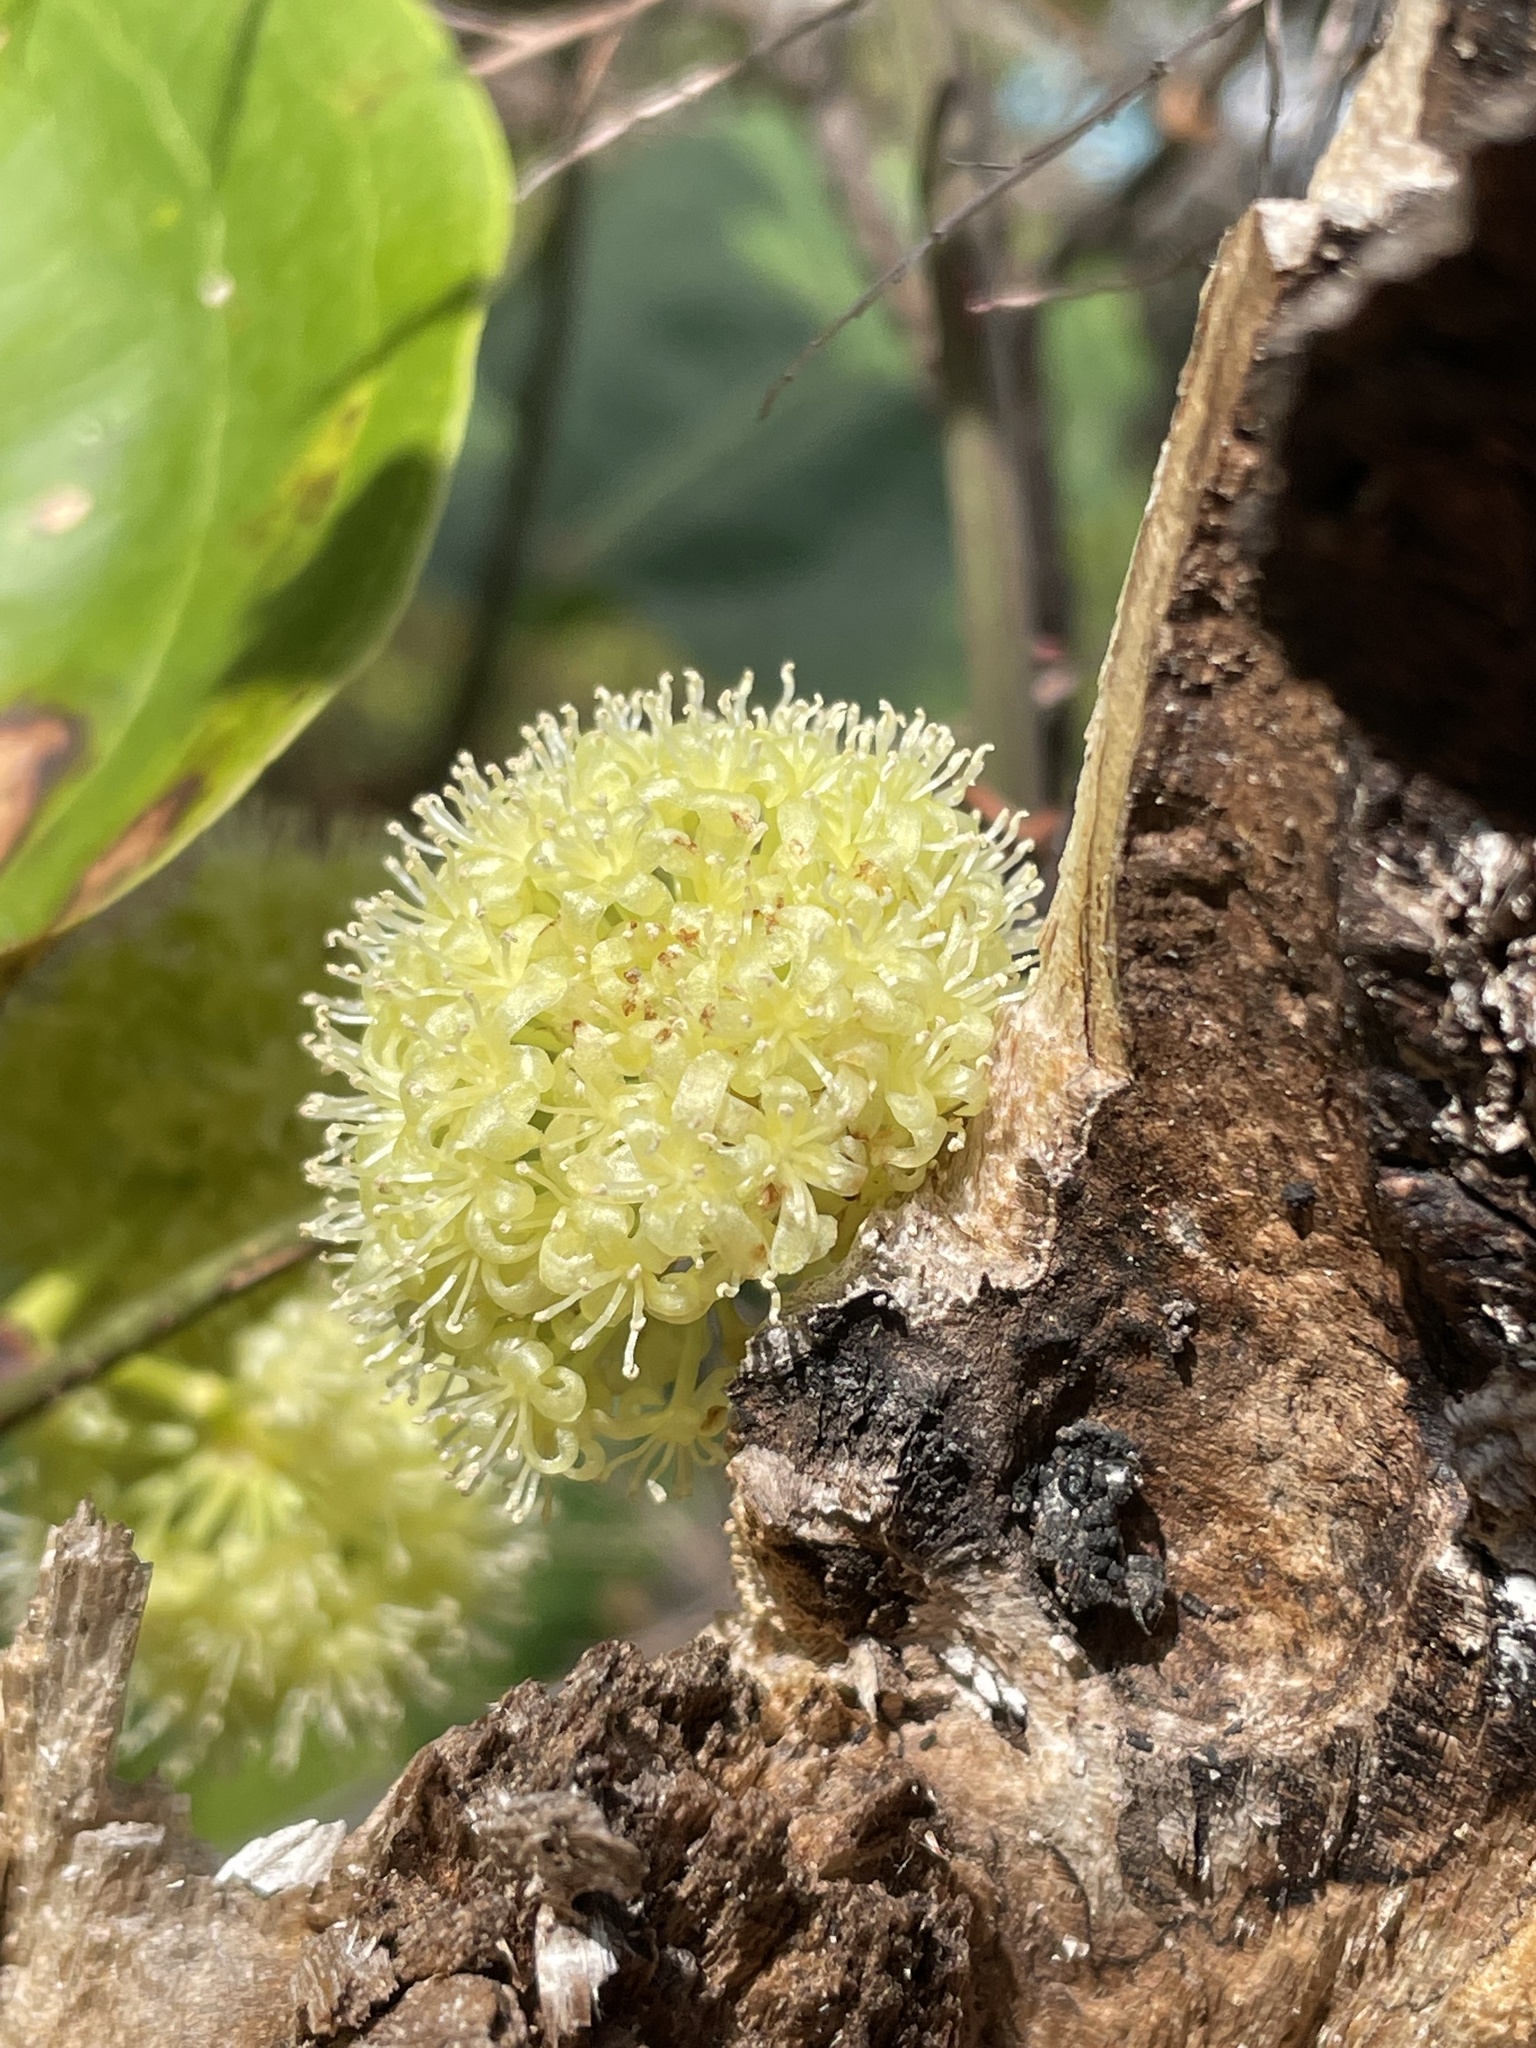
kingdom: Plantae
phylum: Tracheophyta
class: Liliopsida
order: Liliales
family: Smilacaceae
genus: Smilax
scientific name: Smilax australis
